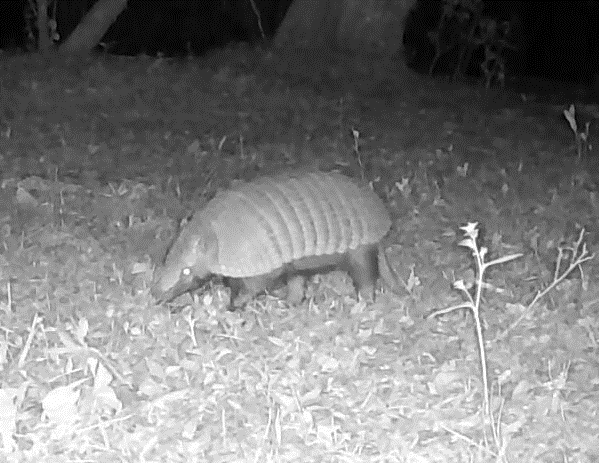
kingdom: Animalia
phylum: Chordata
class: Mammalia
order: Cingulata
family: Dasypodidae
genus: Euphractus
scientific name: Euphractus sexcinctus
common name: Six-banded armadillo
